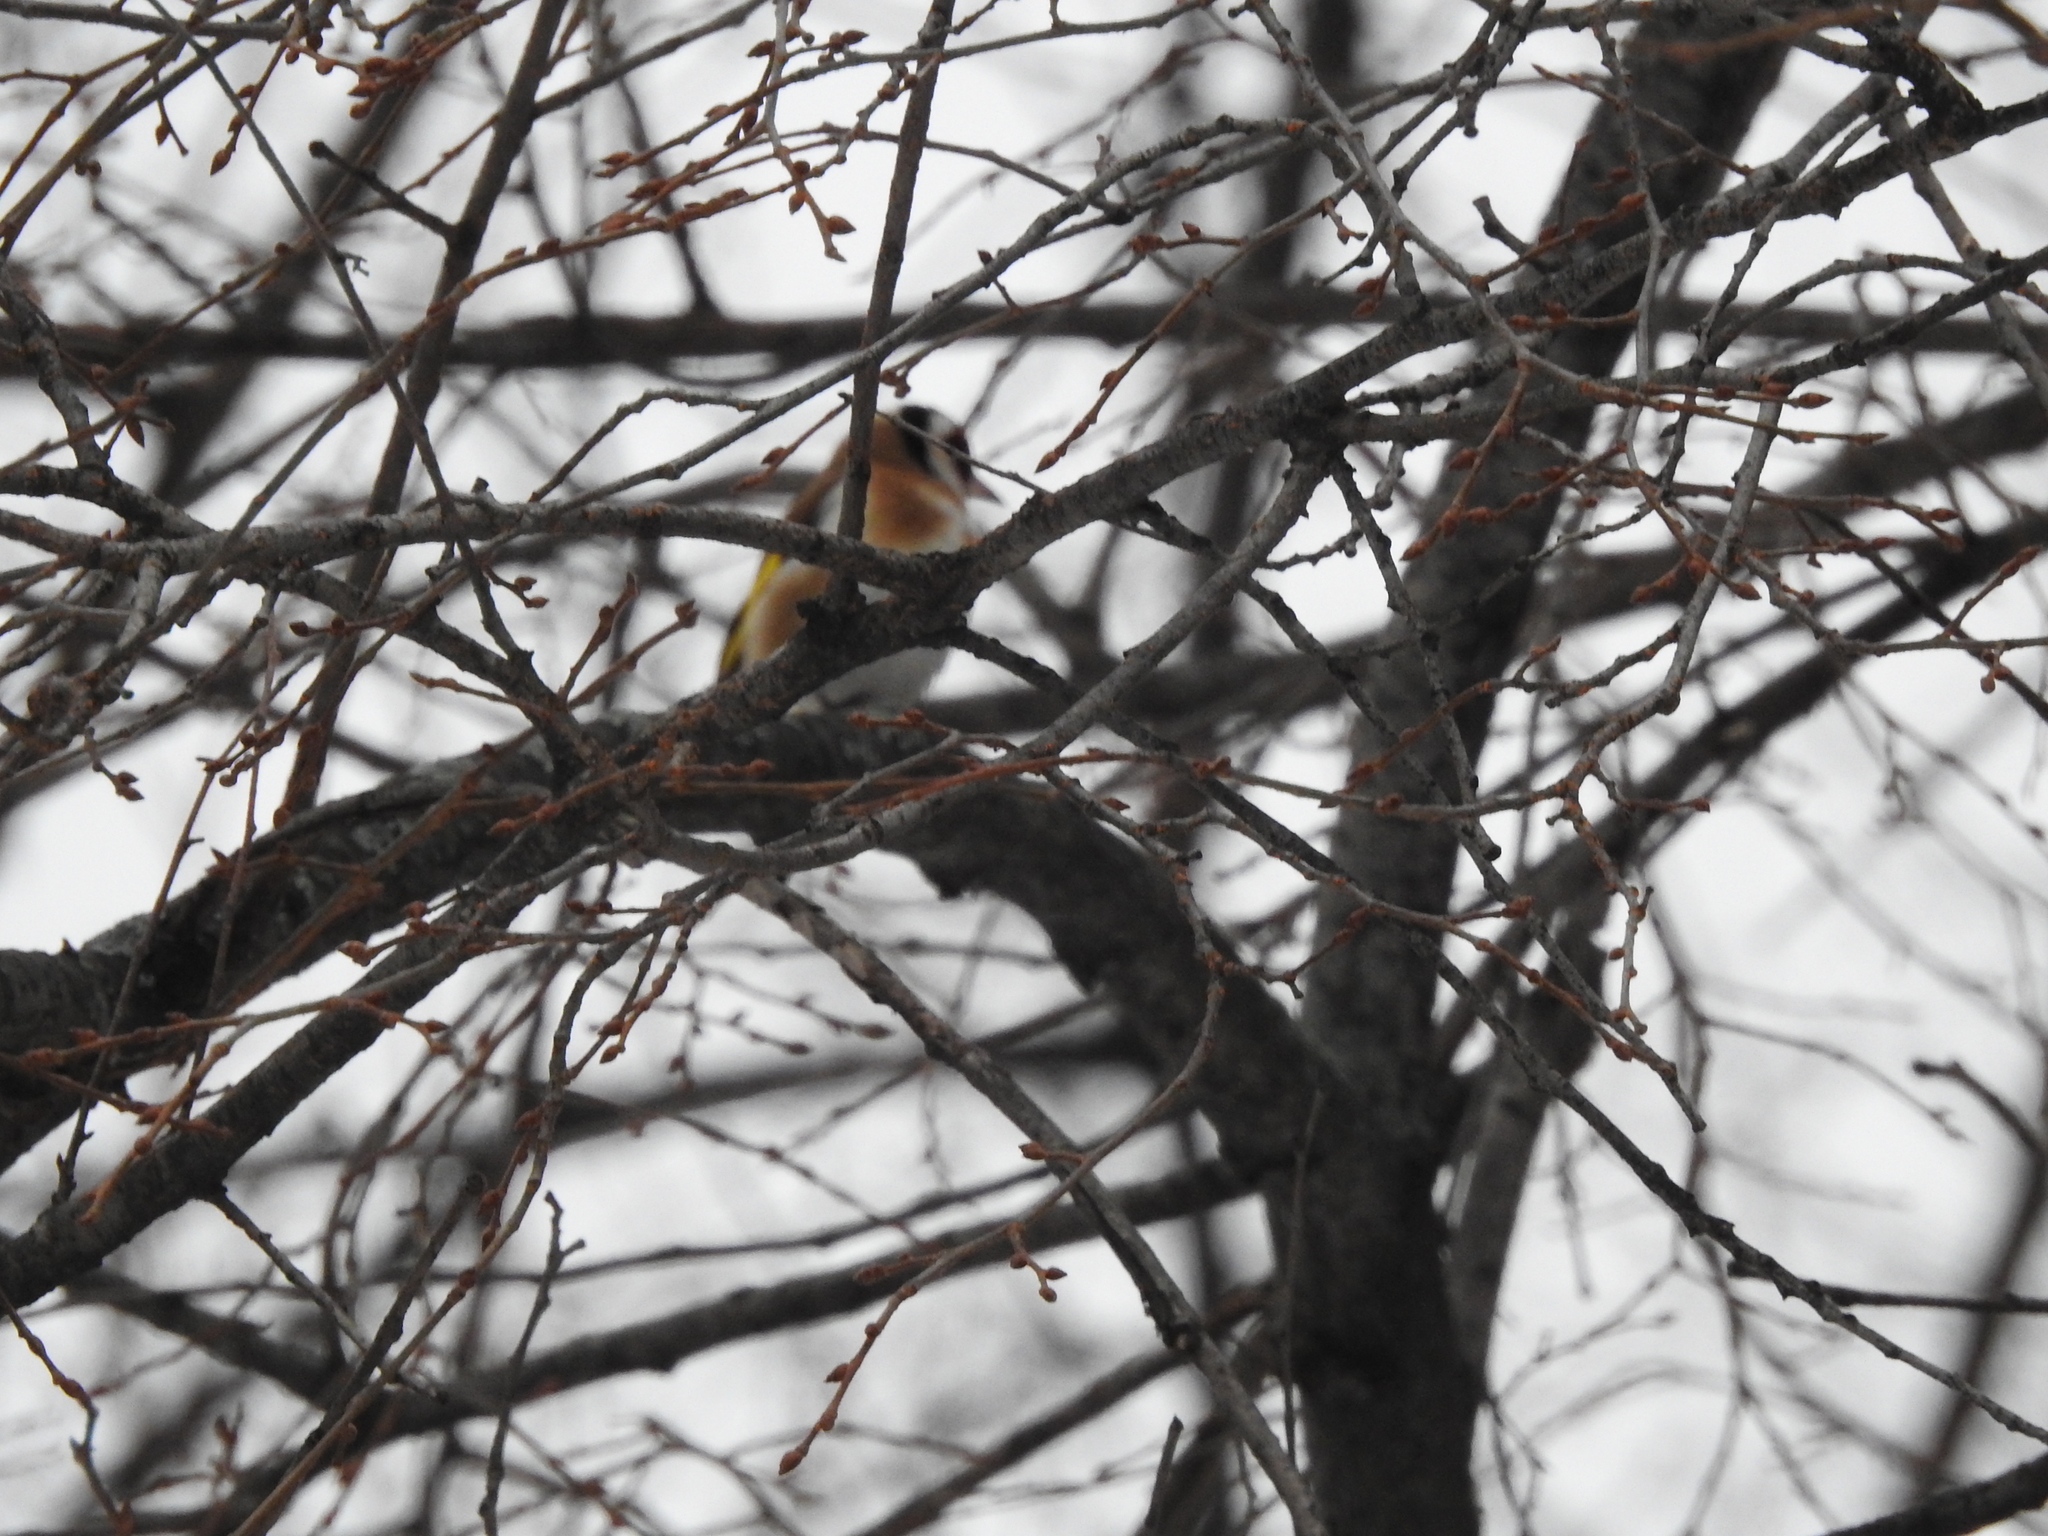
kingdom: Animalia
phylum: Chordata
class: Aves
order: Passeriformes
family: Fringillidae
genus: Carduelis
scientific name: Carduelis carduelis
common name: European goldfinch
